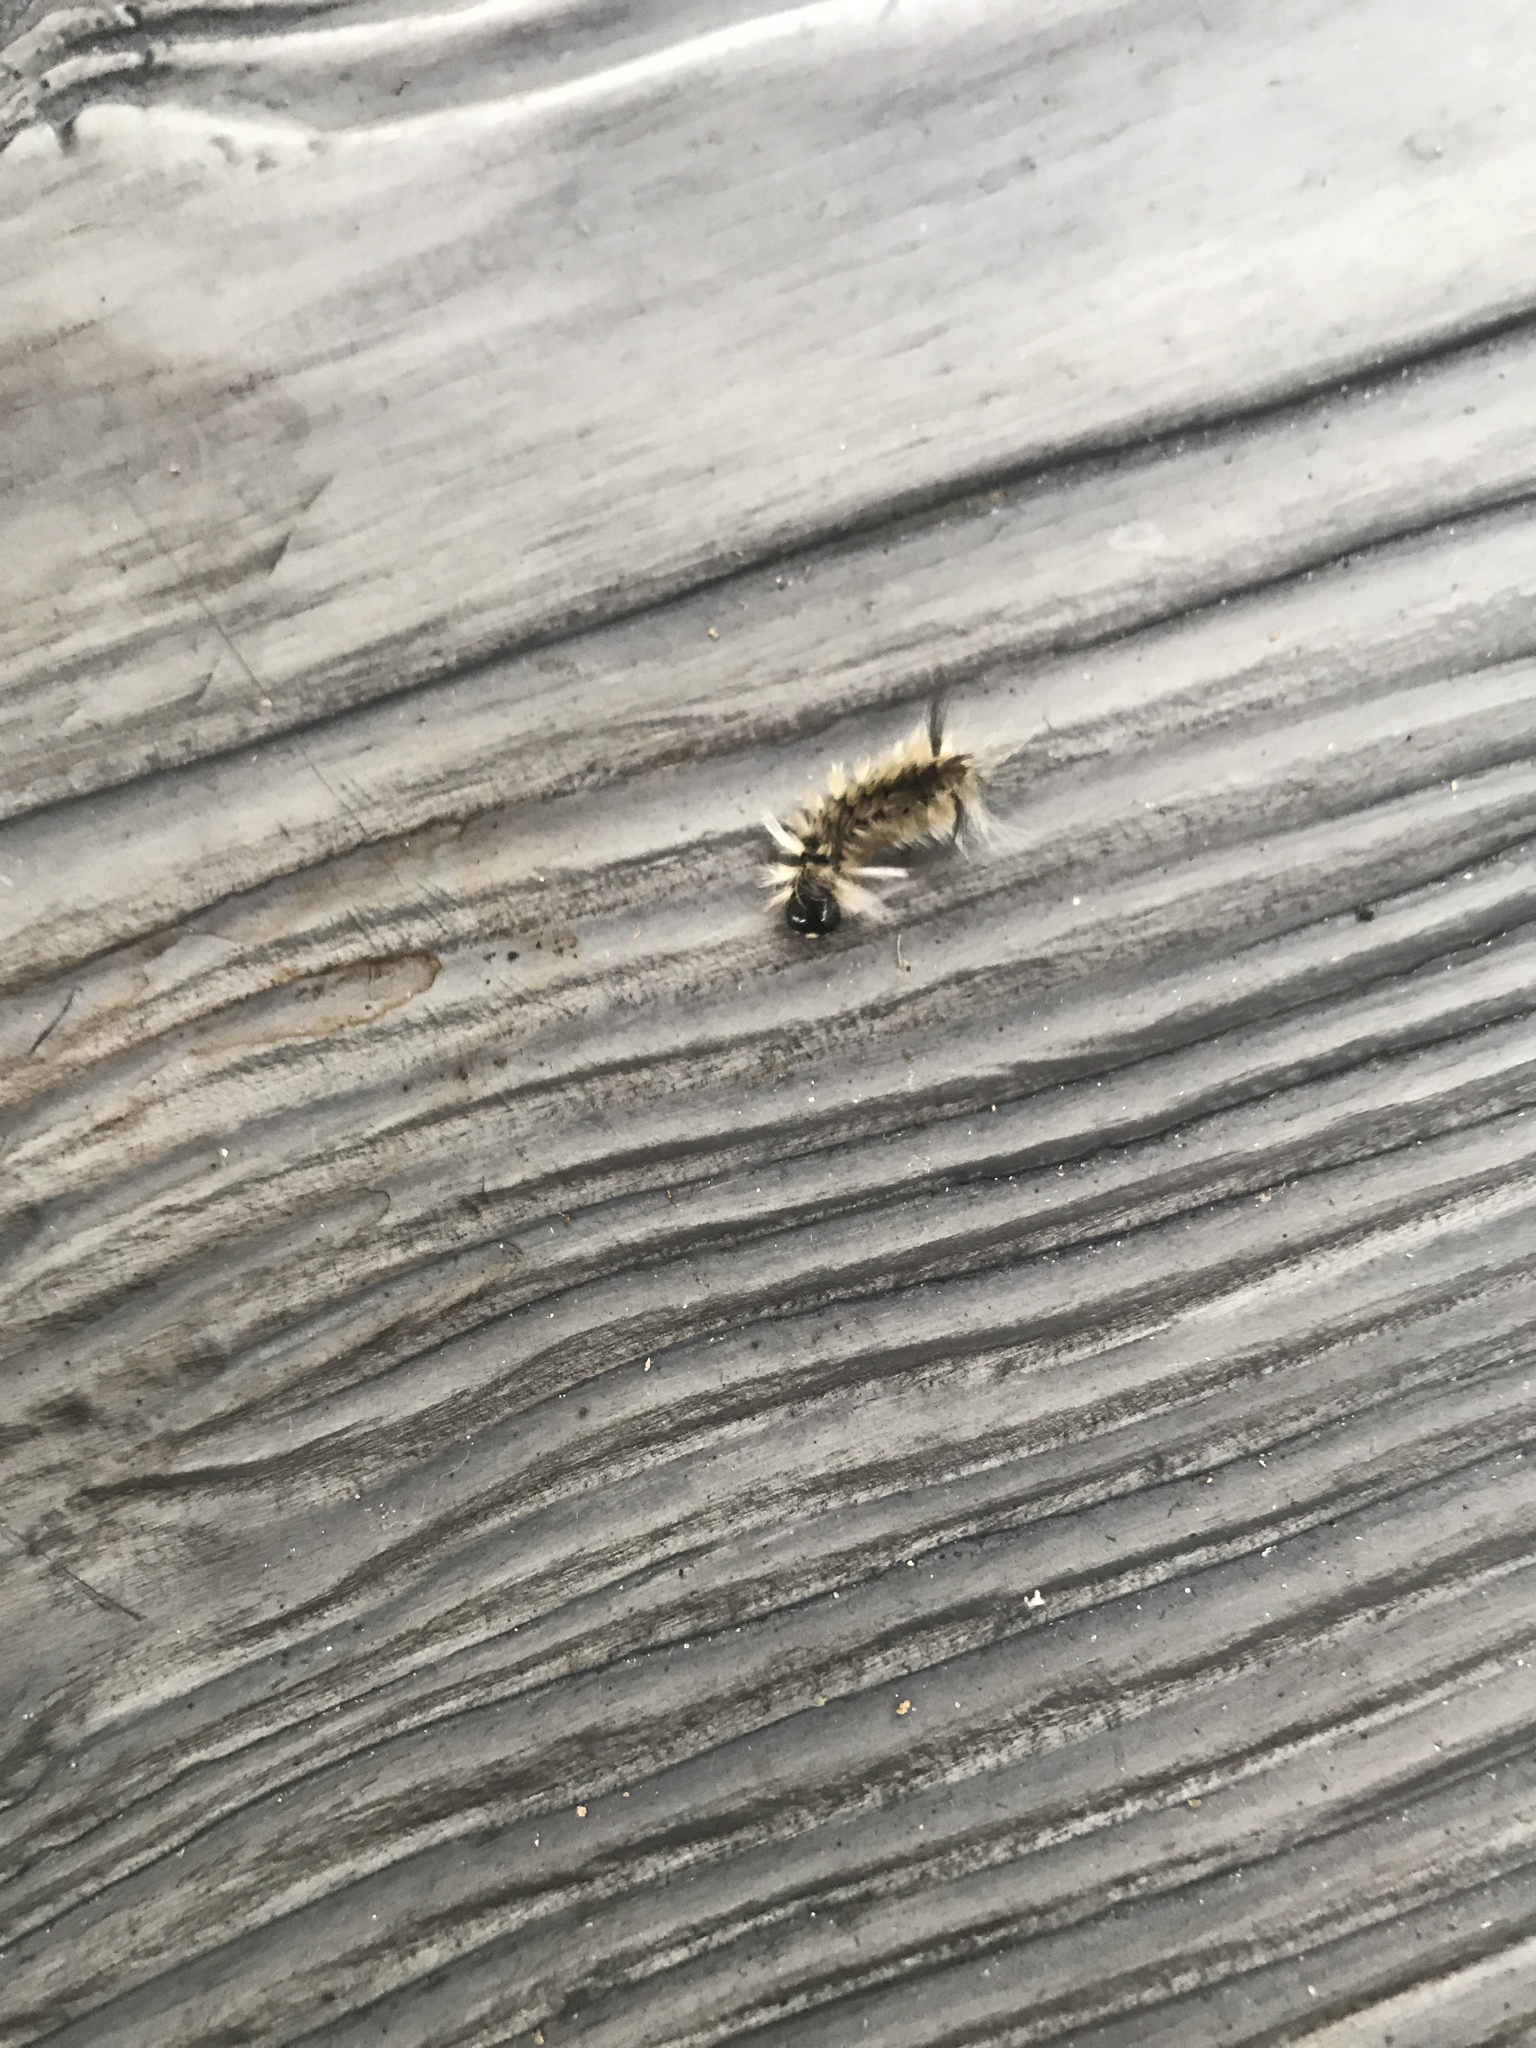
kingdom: Animalia
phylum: Arthropoda
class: Insecta
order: Lepidoptera
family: Erebidae
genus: Halysidota
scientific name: Halysidota tessellaris
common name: Banded tussock moth
